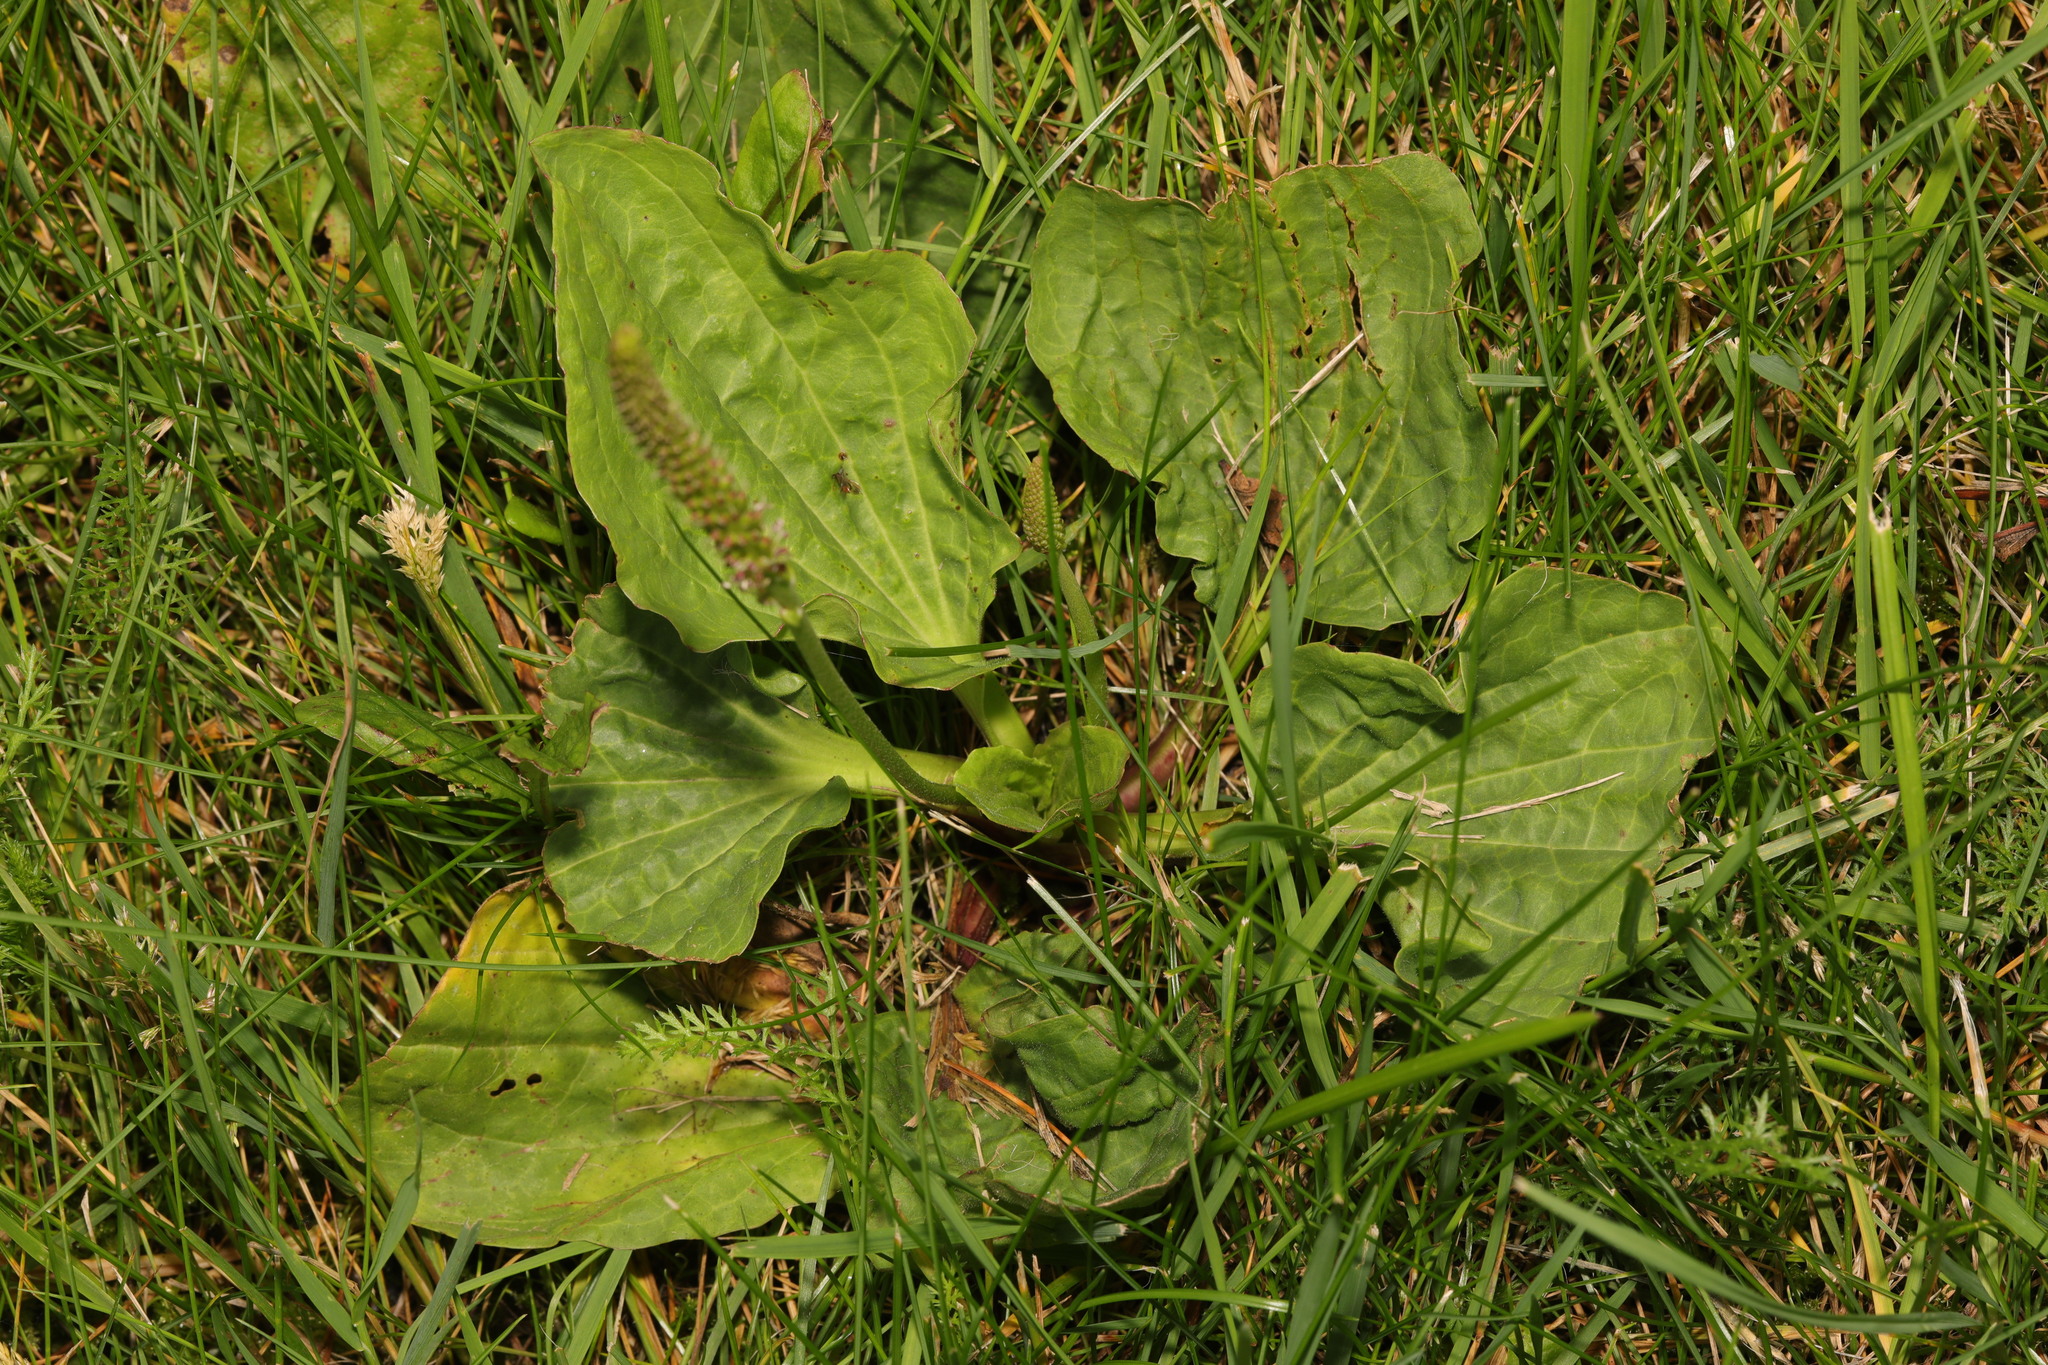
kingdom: Plantae
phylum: Tracheophyta
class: Magnoliopsida
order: Lamiales
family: Plantaginaceae
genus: Plantago
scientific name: Plantago major
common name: Common plantain
